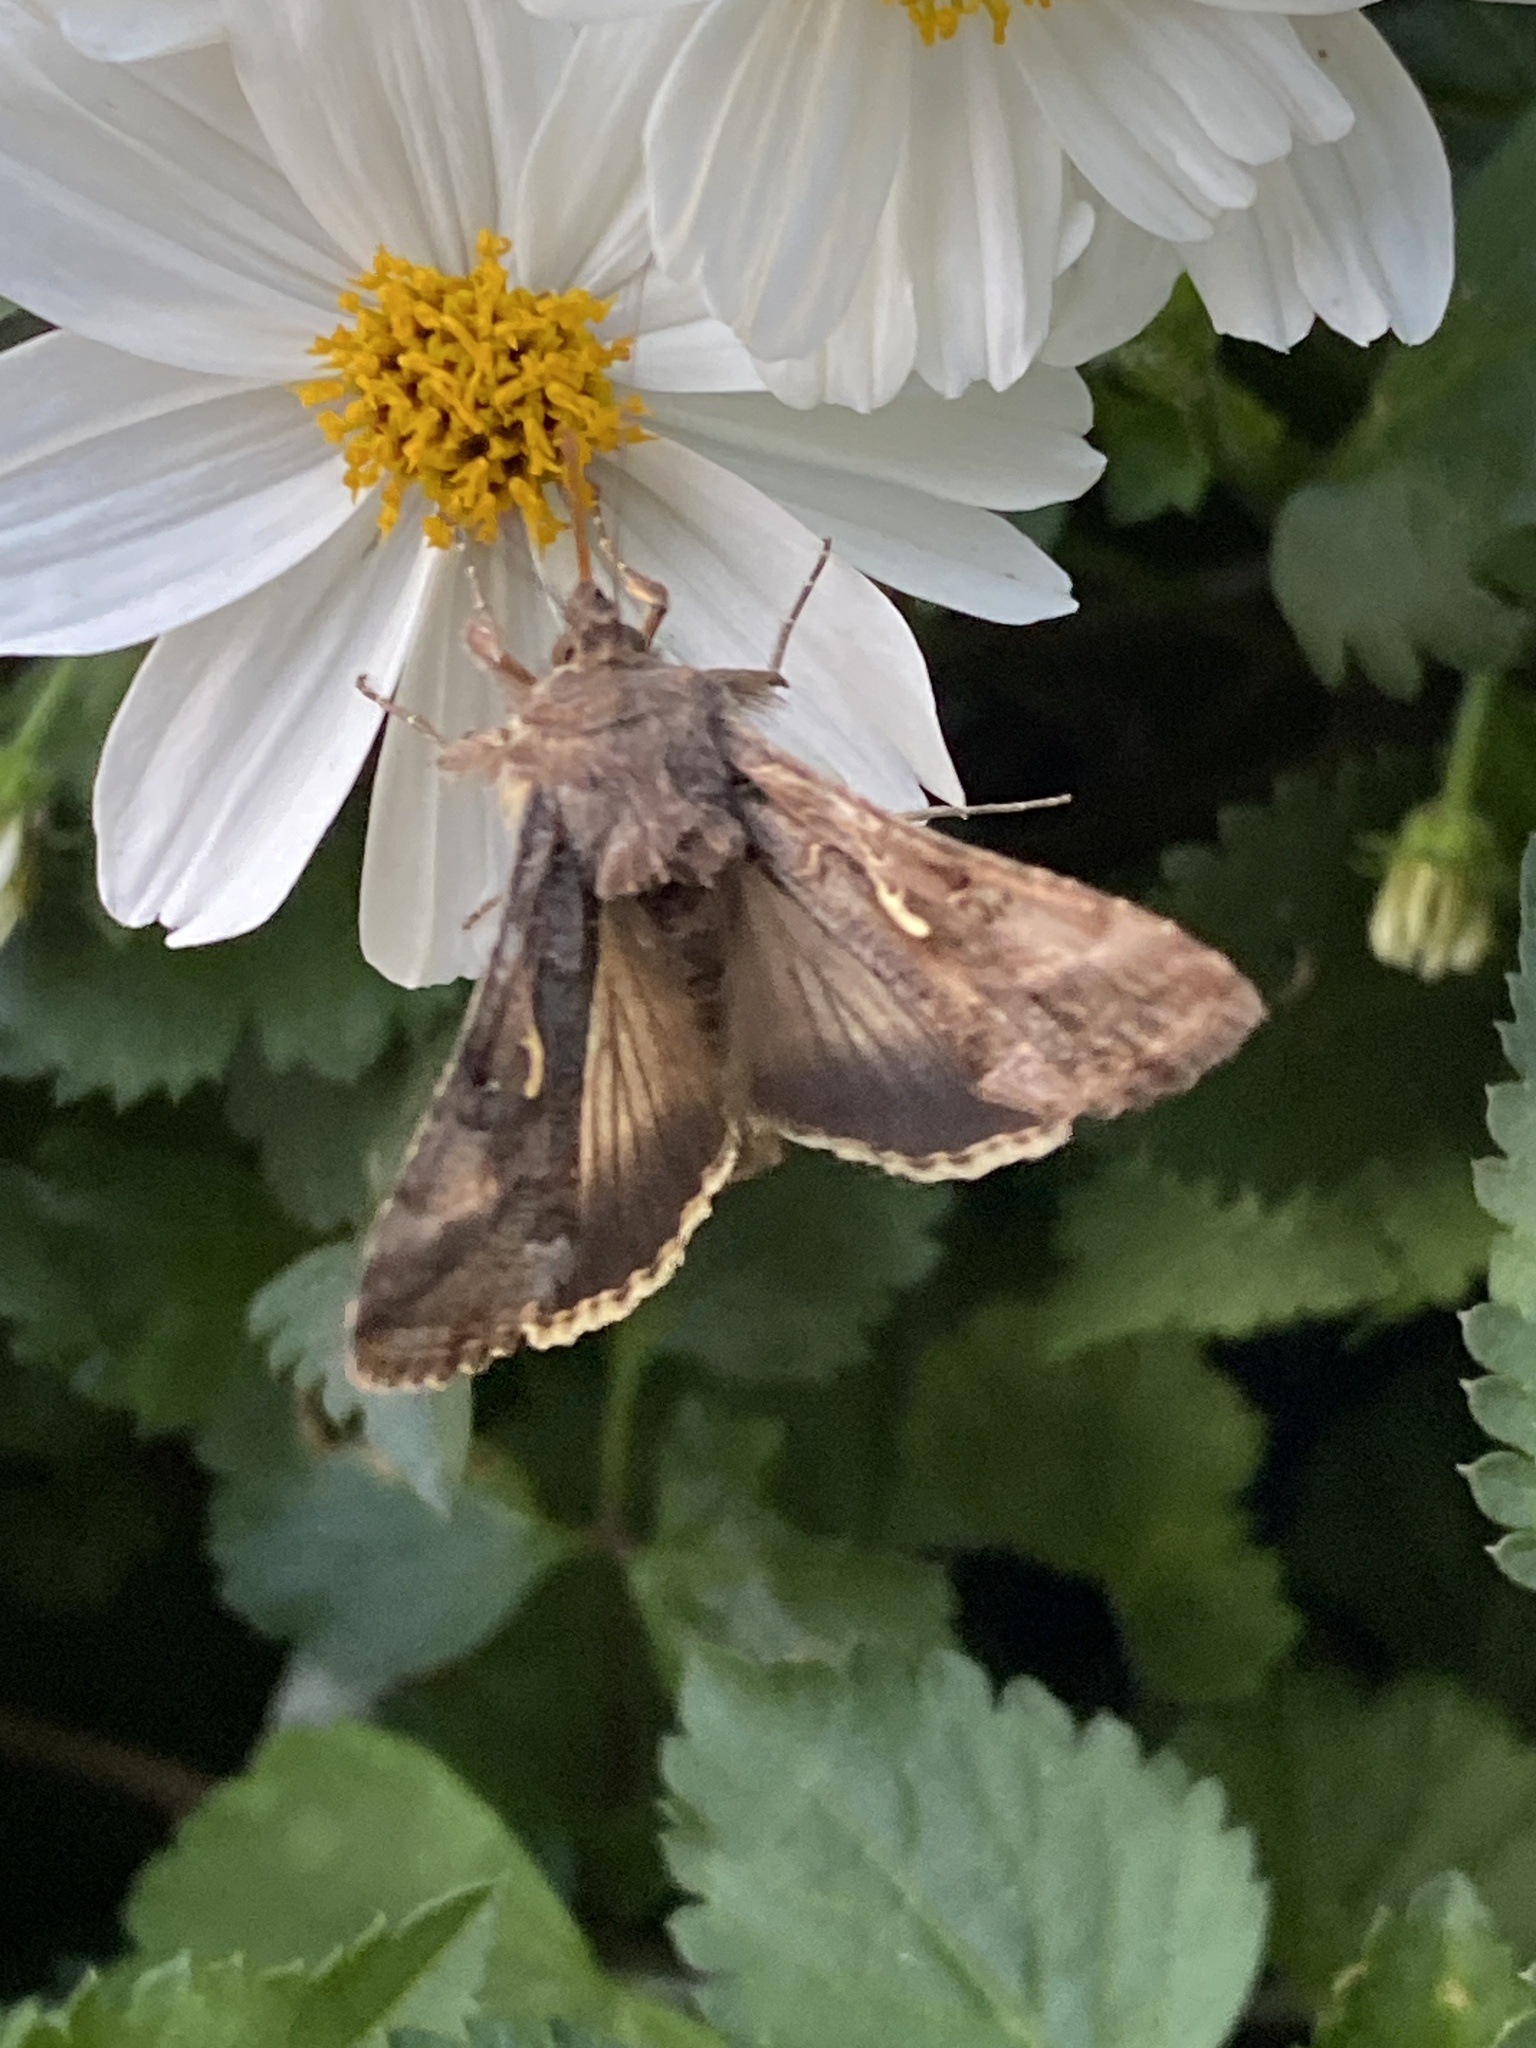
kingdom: Animalia
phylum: Arthropoda
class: Insecta
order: Lepidoptera
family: Noctuidae
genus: Autographa
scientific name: Autographa gamma
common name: Silver y
